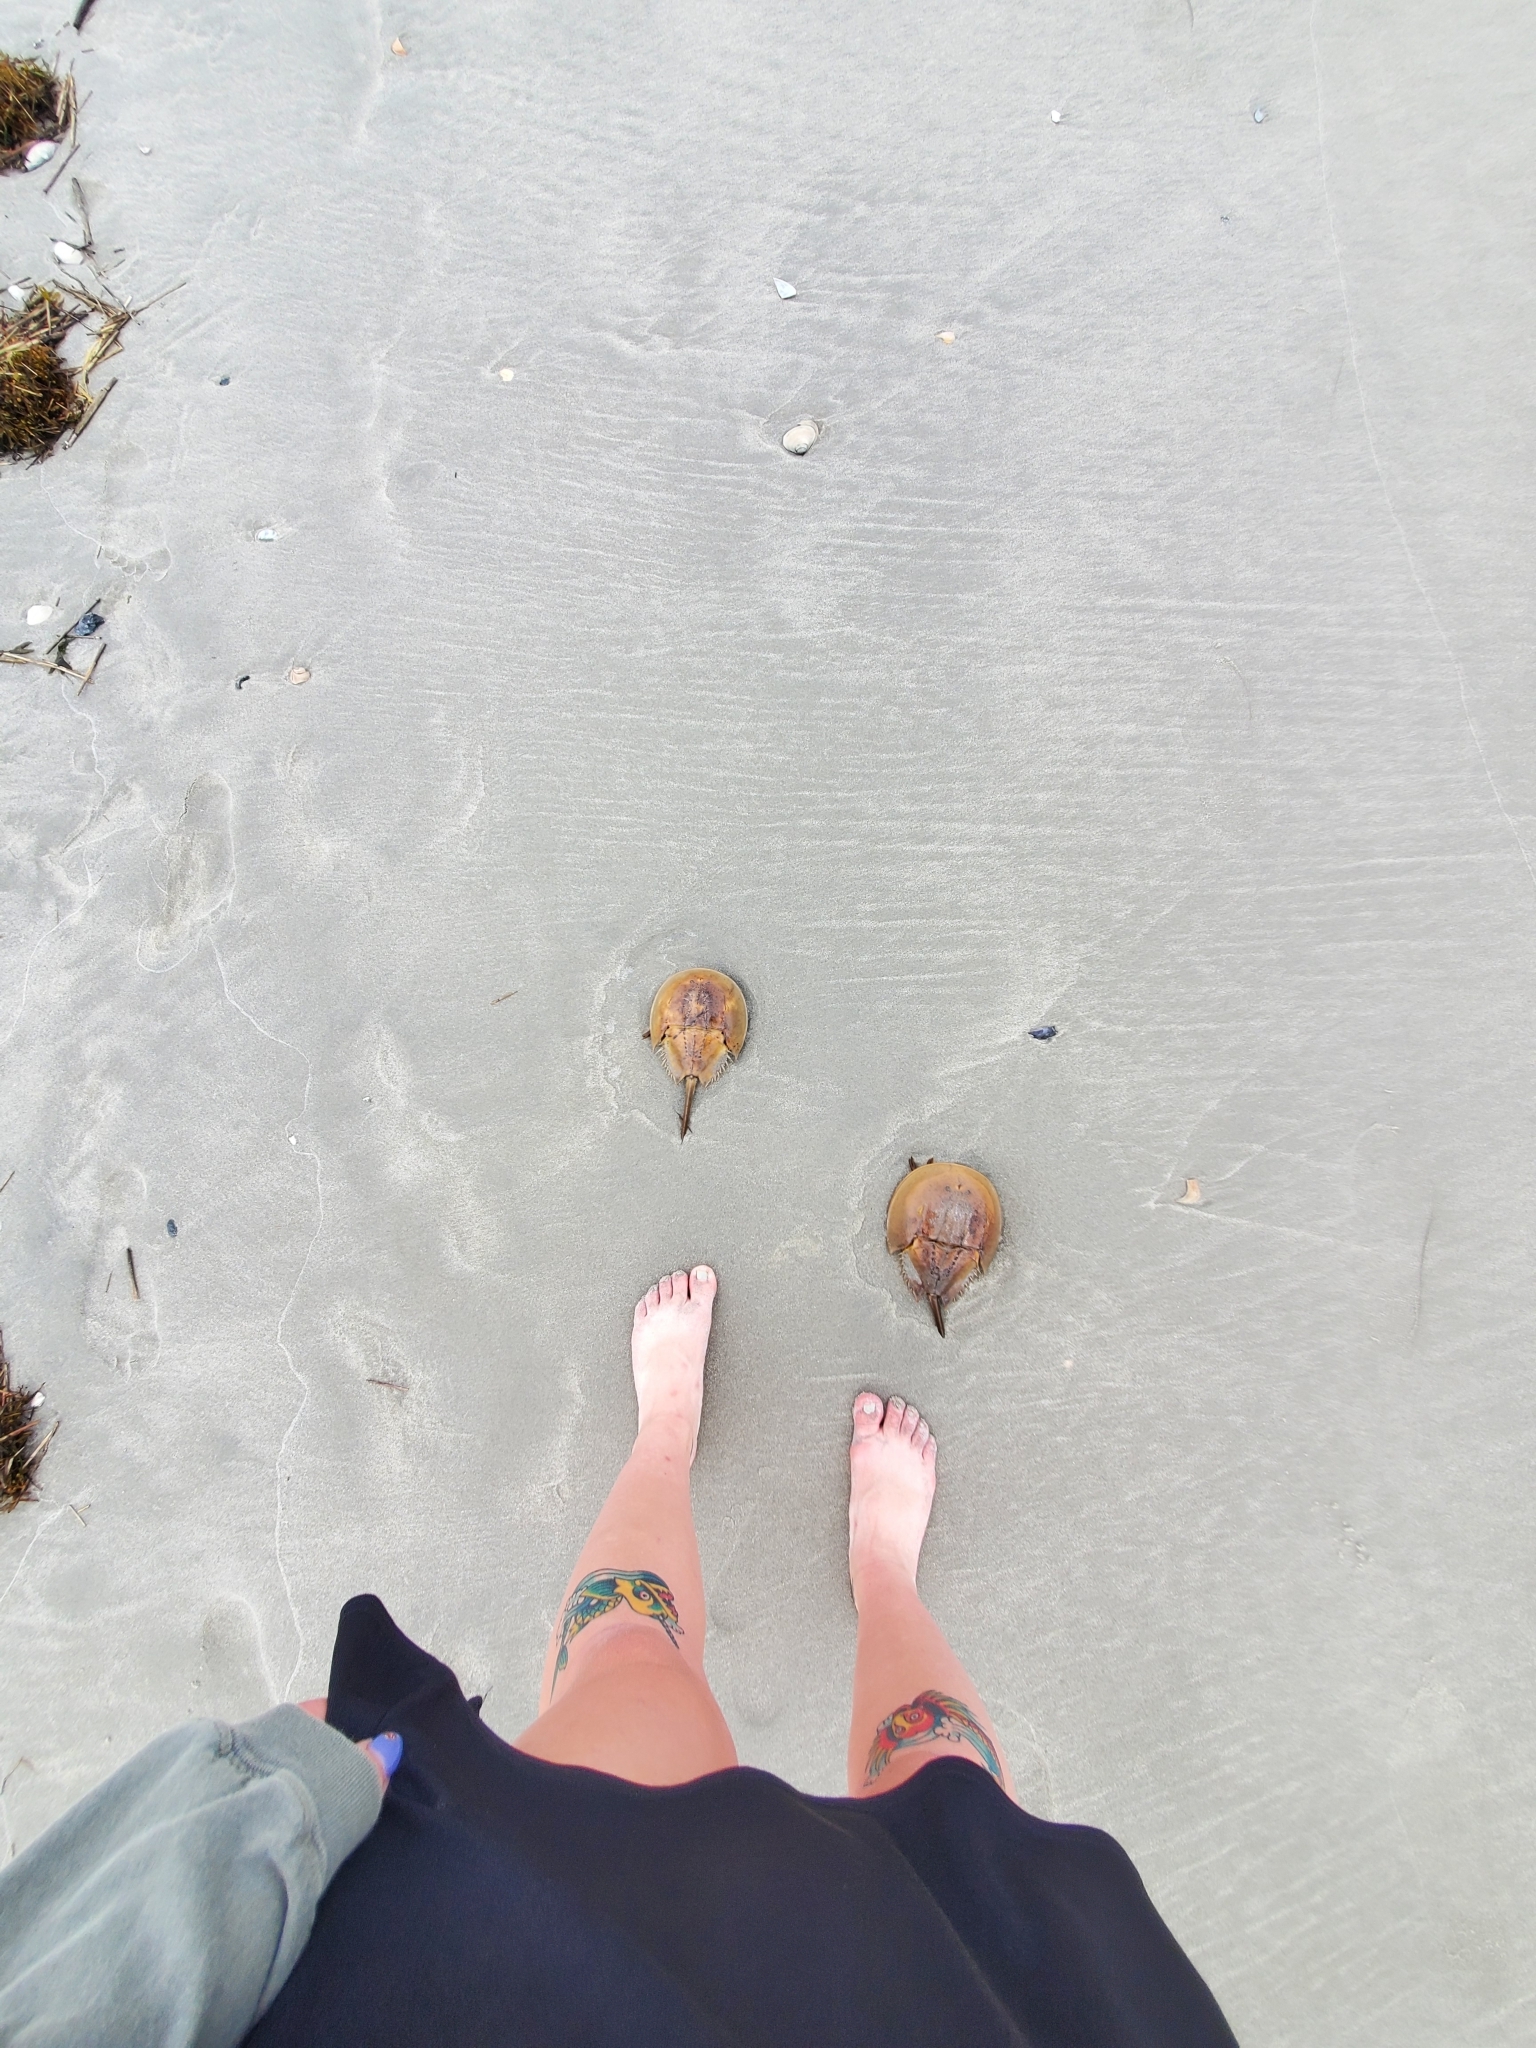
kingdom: Animalia
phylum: Arthropoda
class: Merostomata
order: Xiphosurida
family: Limulidae
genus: Limulus
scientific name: Limulus polyphemus
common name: Horseshoe crab
